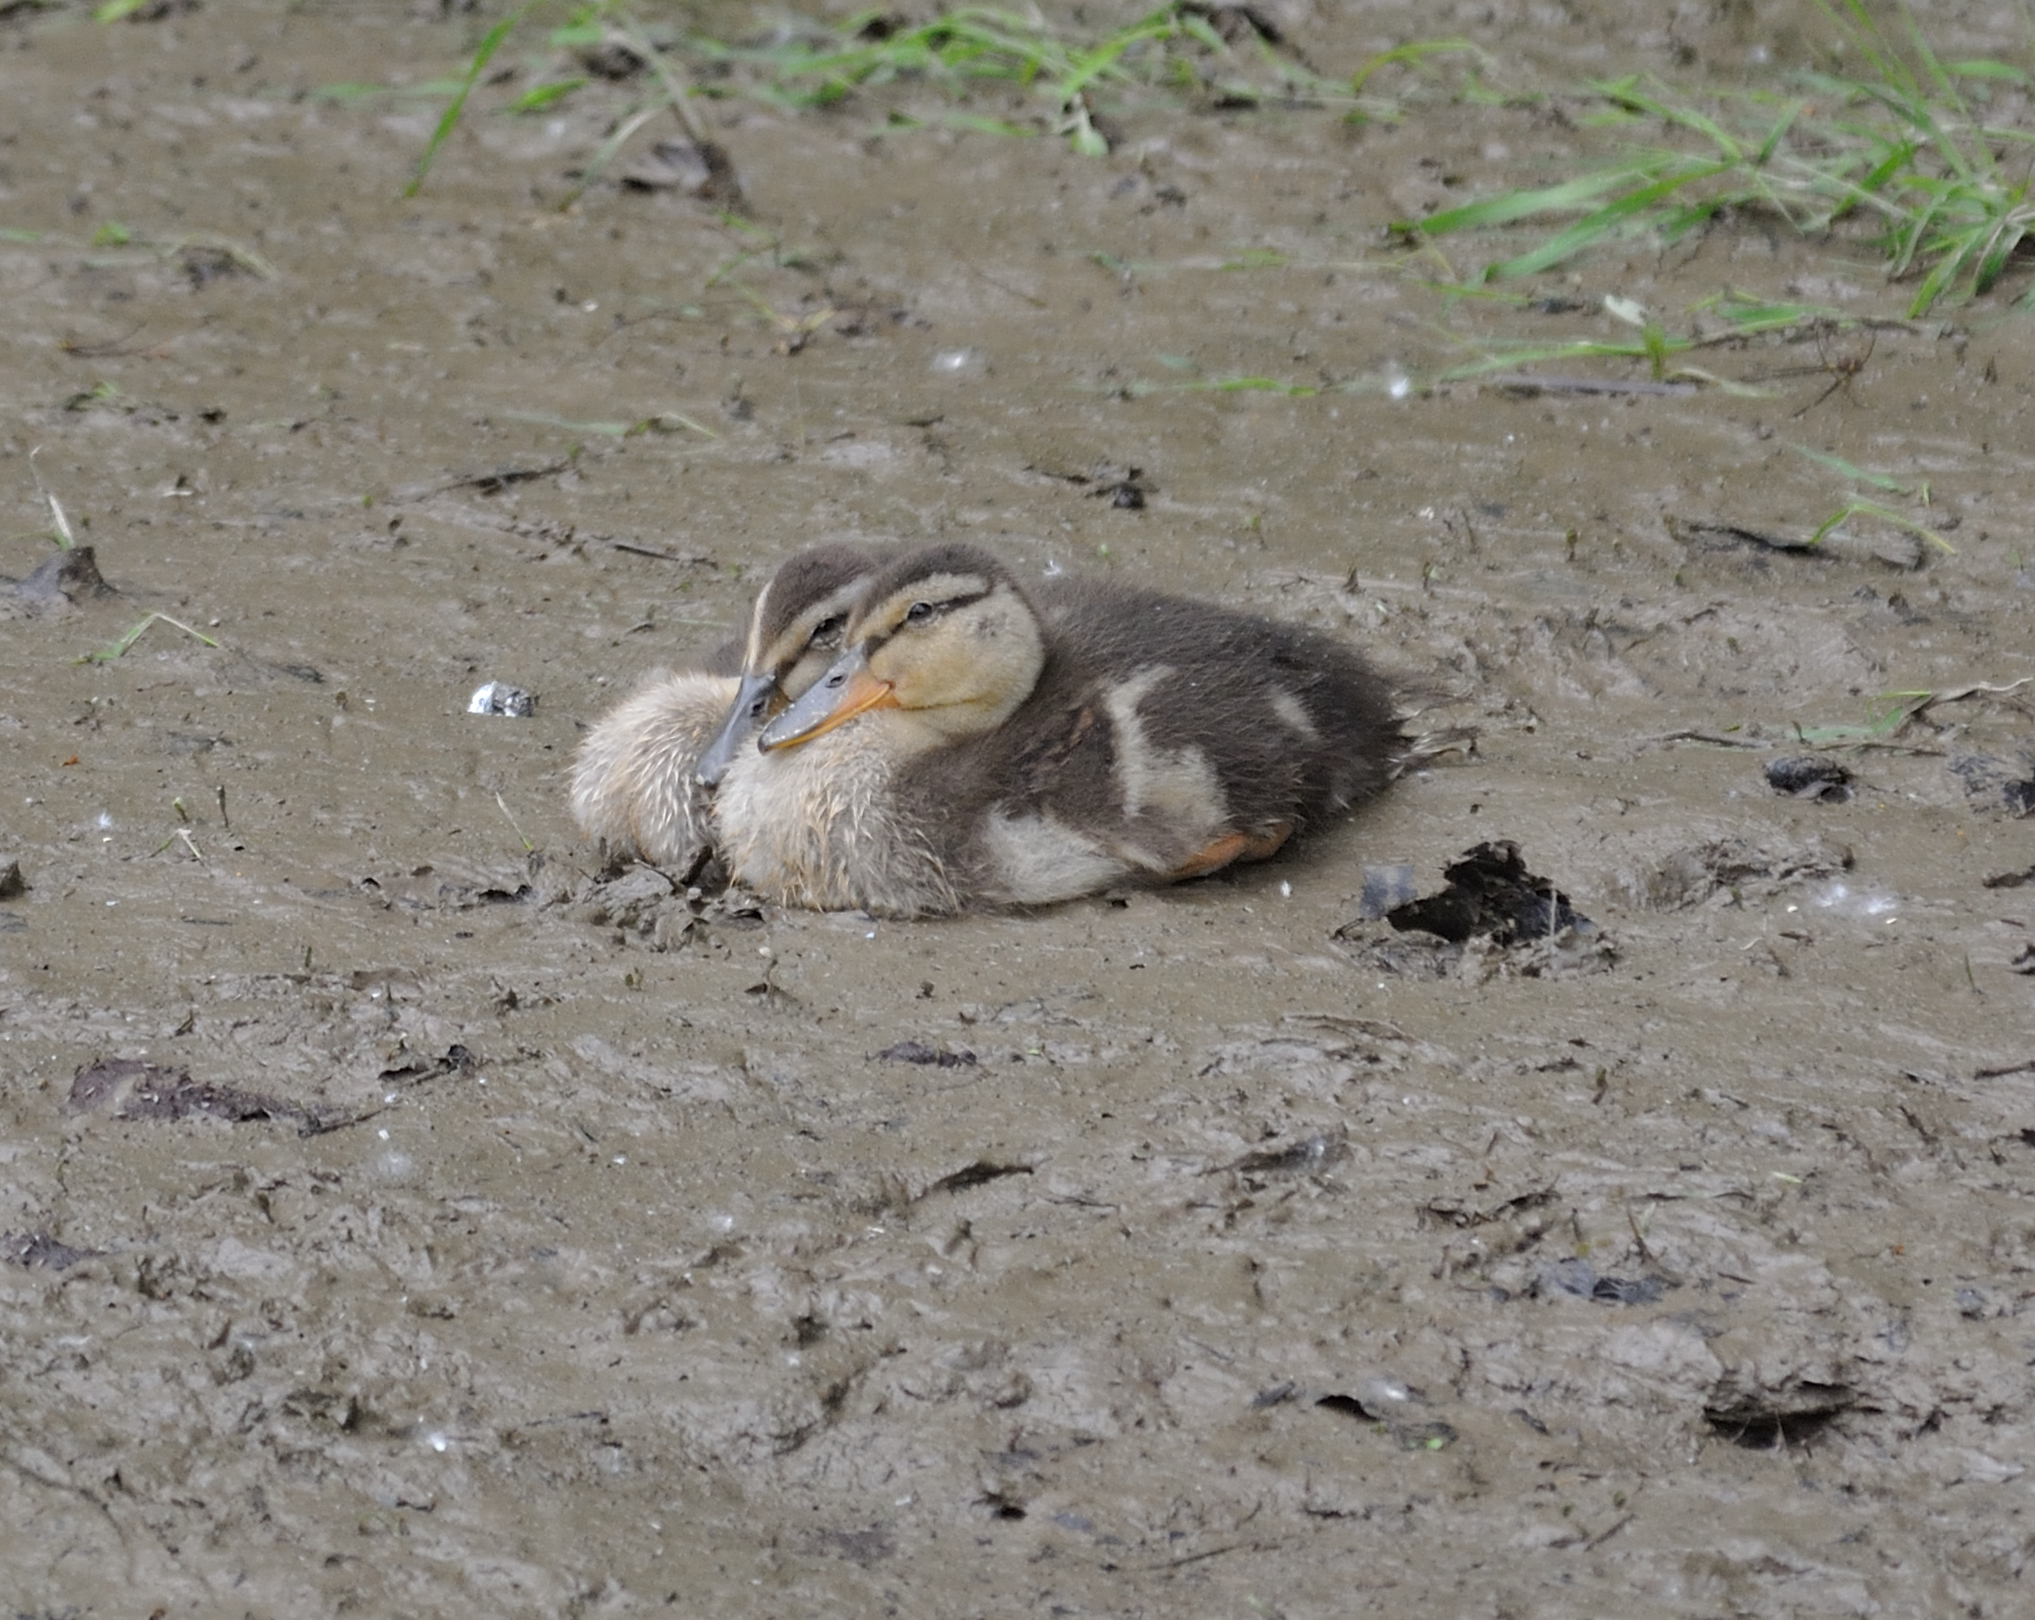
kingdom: Animalia
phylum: Chordata
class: Aves
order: Anseriformes
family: Anatidae
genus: Anas
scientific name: Anas platyrhynchos
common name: Mallard
